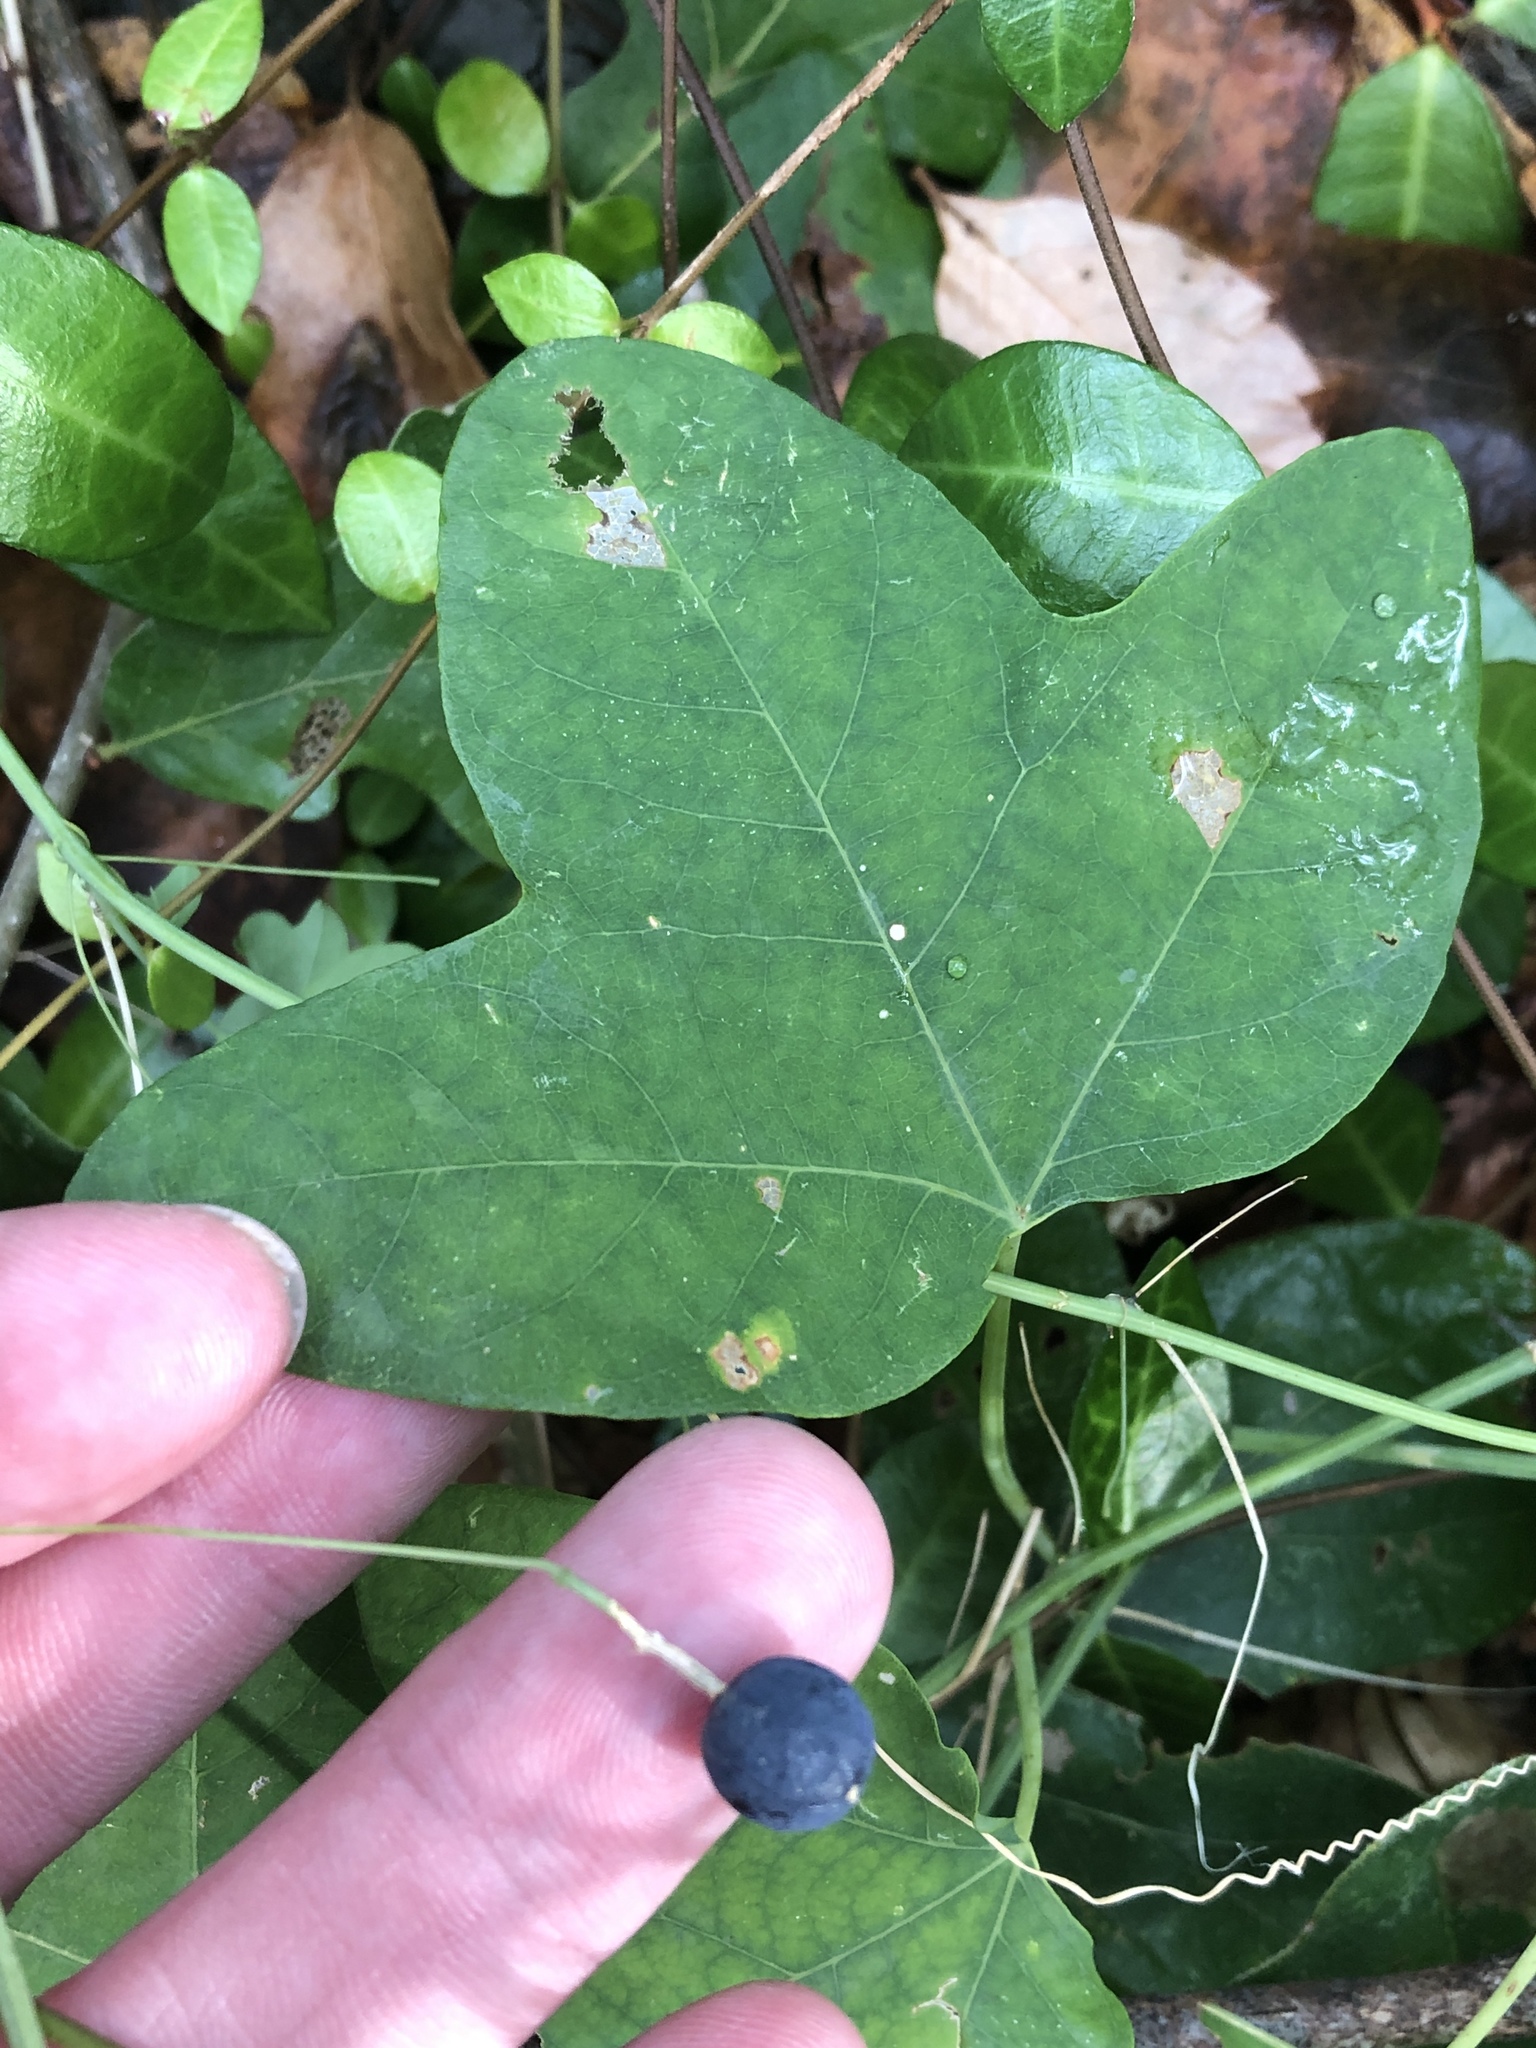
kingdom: Plantae
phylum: Tracheophyta
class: Magnoliopsida
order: Malpighiales
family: Passifloraceae
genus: Passiflora
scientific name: Passiflora lutea
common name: Yellow passionflower
